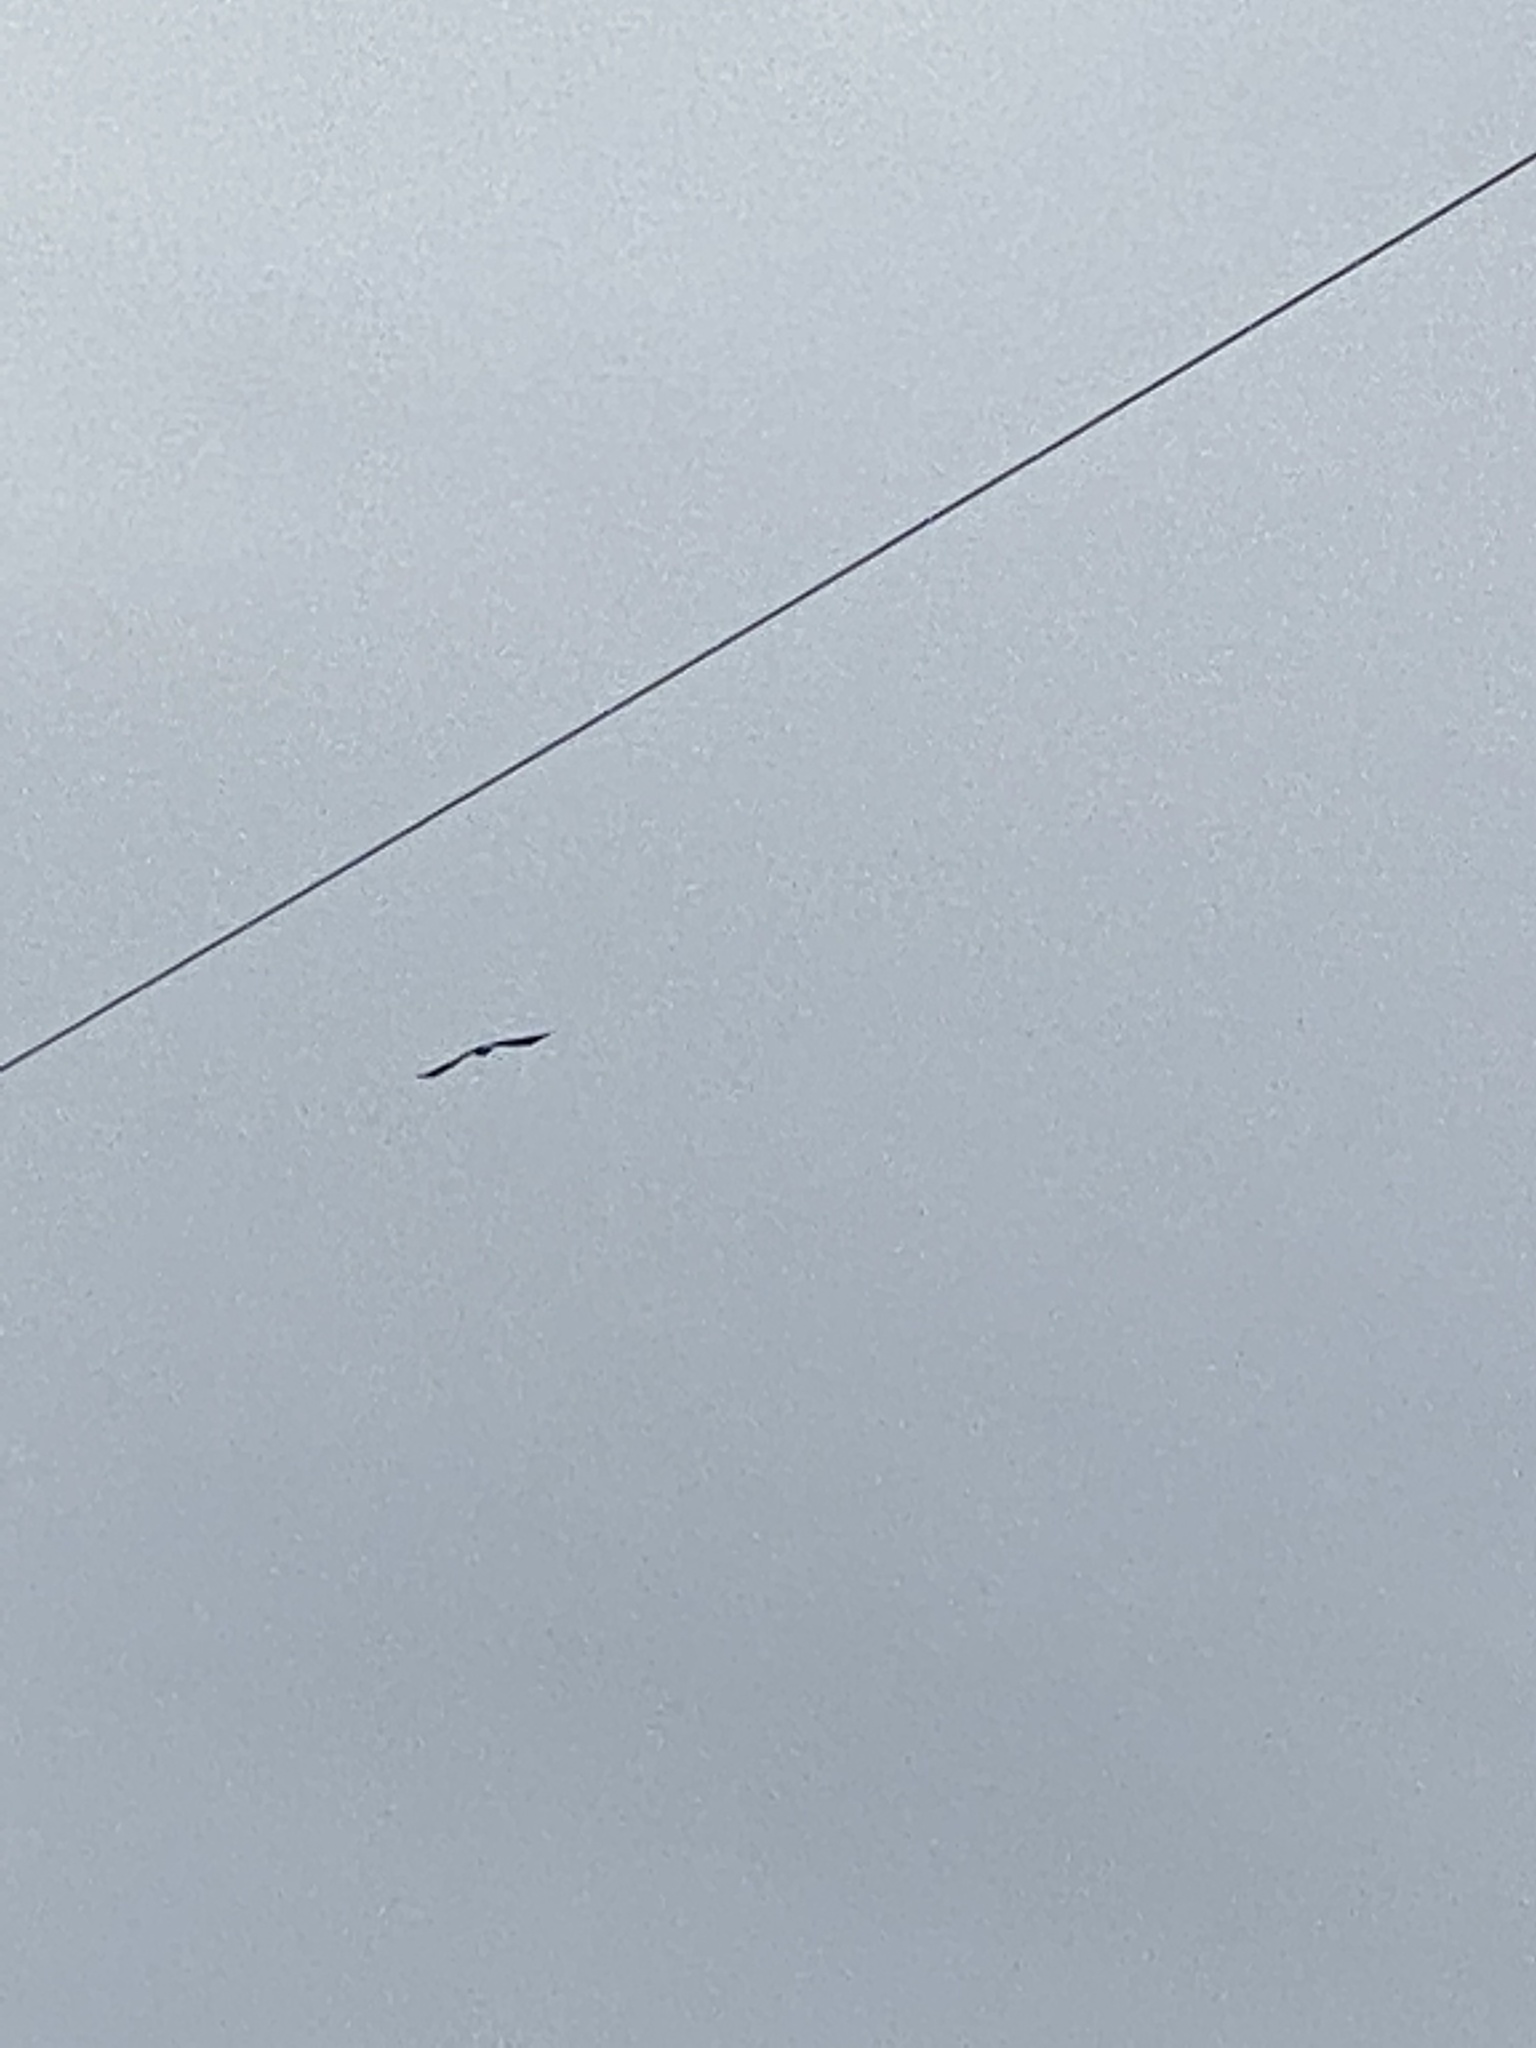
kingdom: Animalia
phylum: Chordata
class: Aves
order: Accipitriformes
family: Accipitridae
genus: Haliaeetus
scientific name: Haliaeetus leucocephalus
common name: Bald eagle
